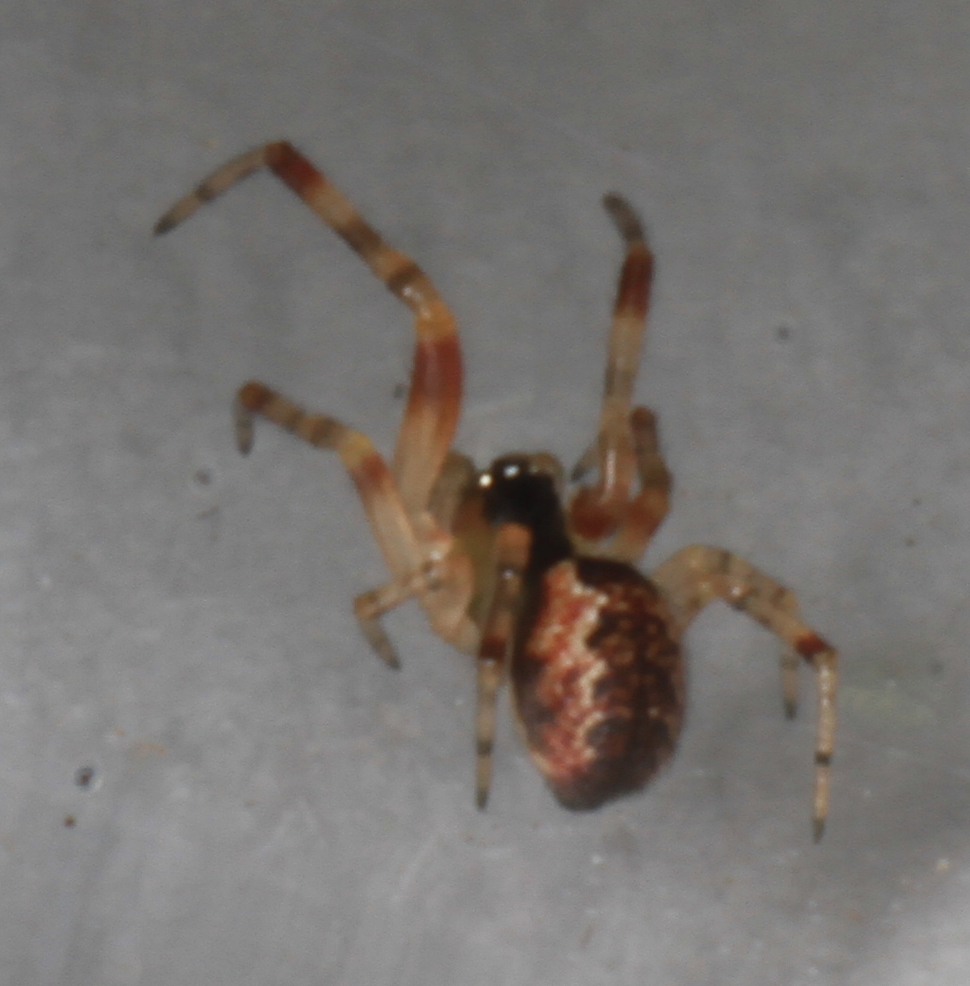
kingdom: Animalia
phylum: Arthropoda
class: Arachnida
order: Araneae
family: Theridiidae
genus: Anelosimus
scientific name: Anelosimus vittatus
